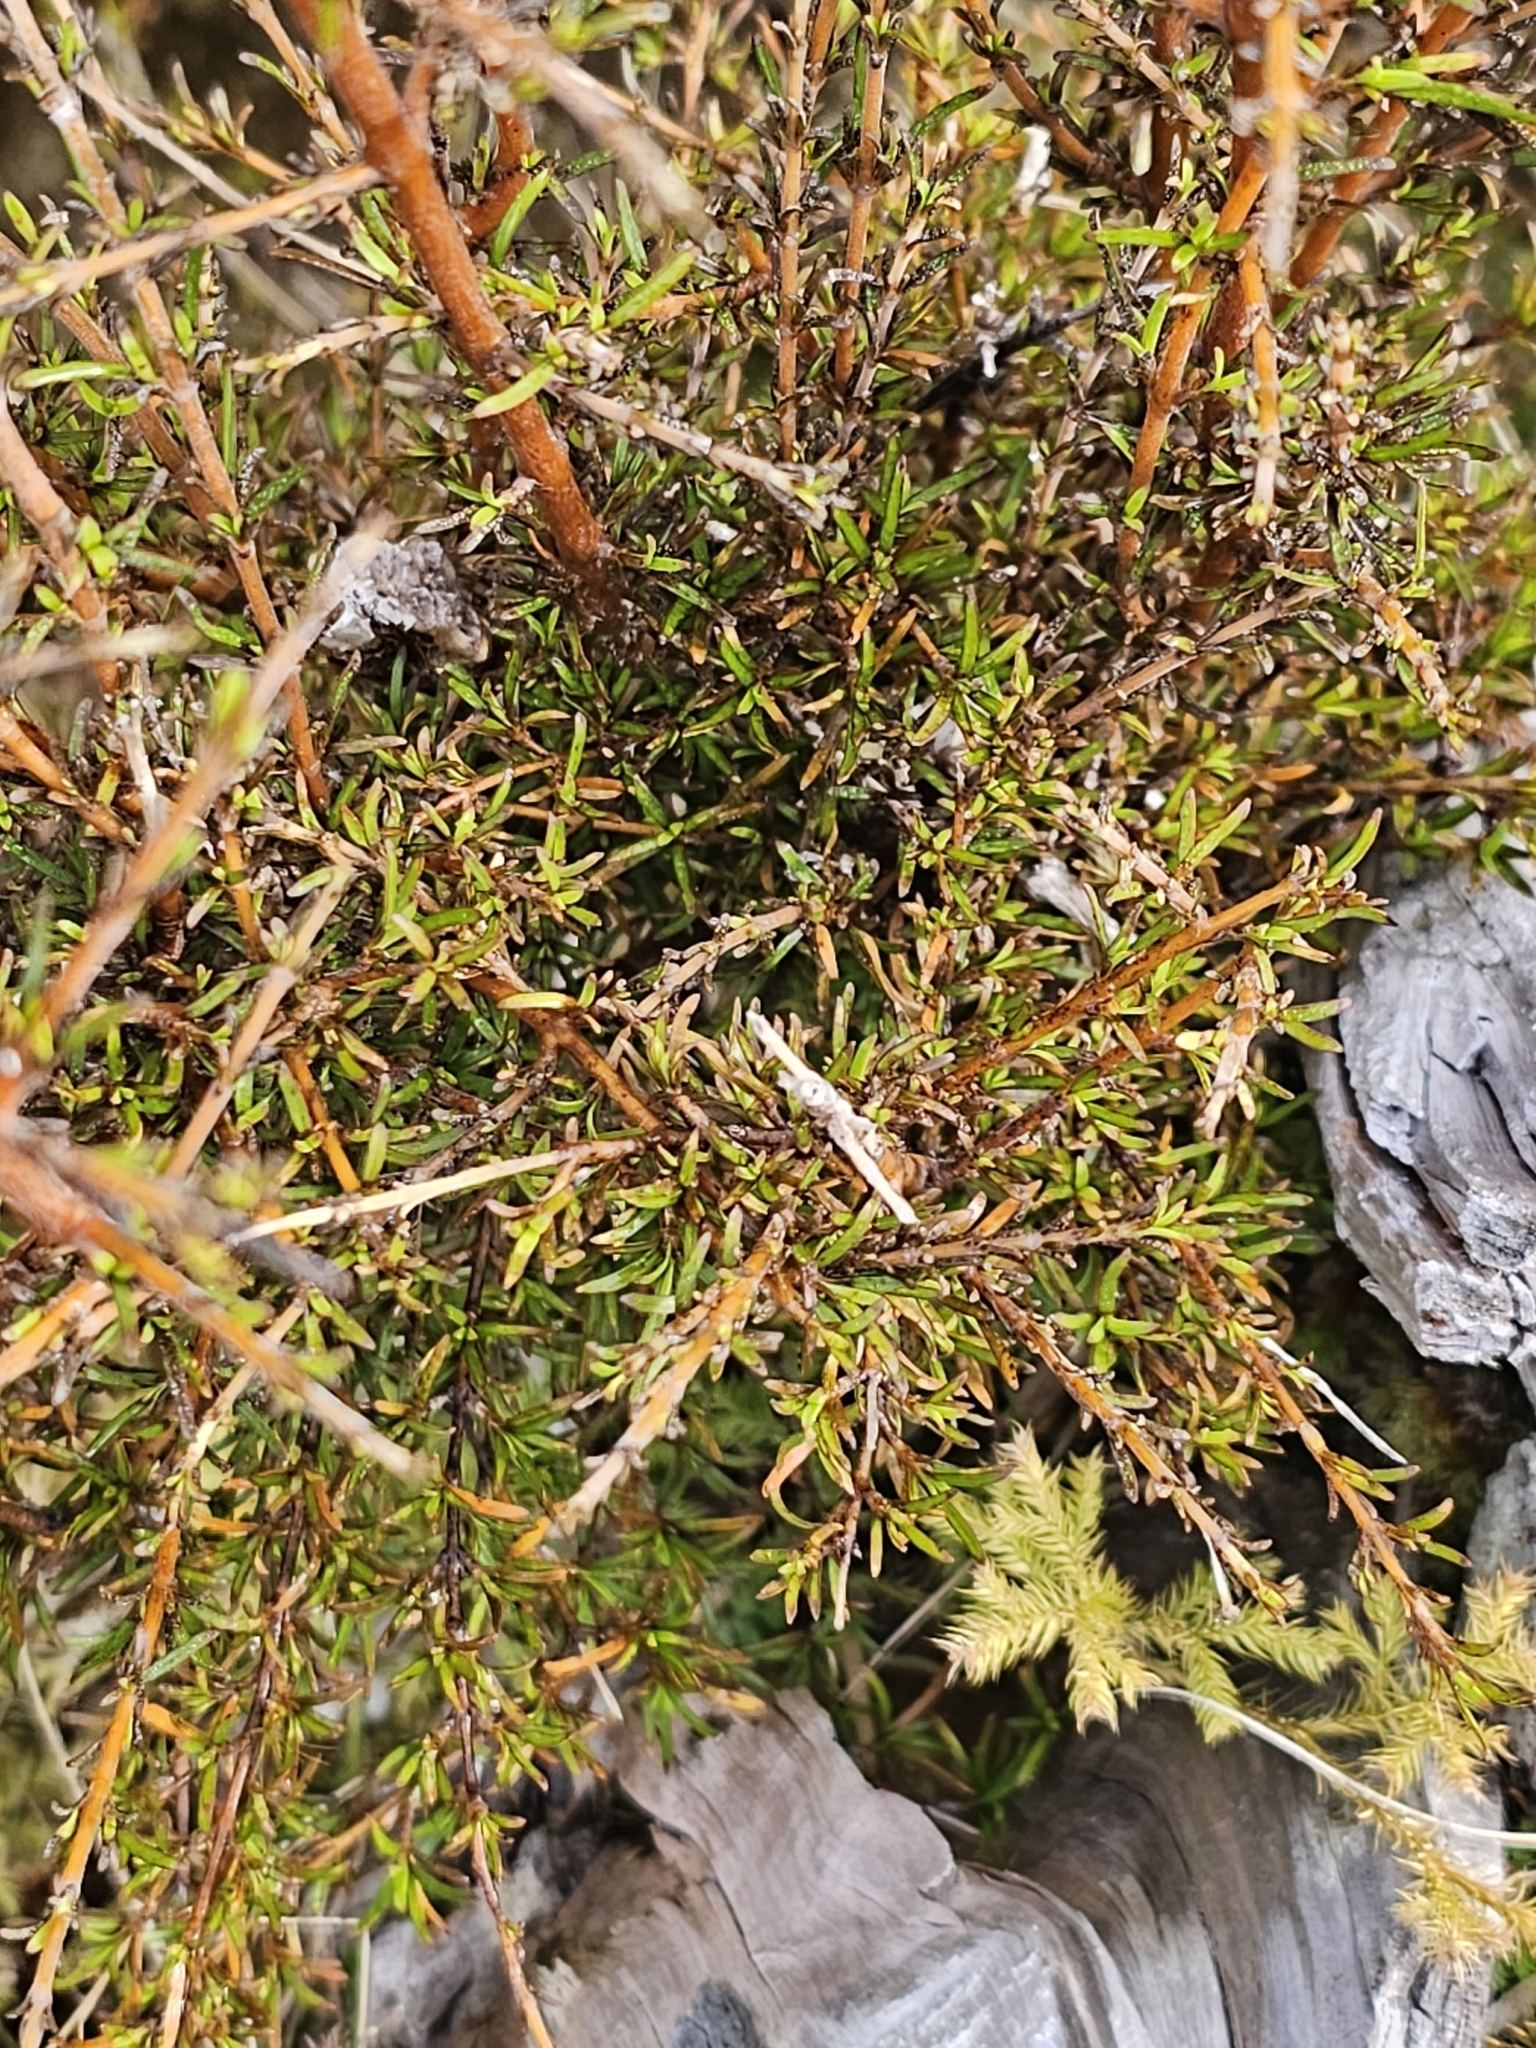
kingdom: Plantae
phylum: Tracheophyta
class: Magnoliopsida
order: Gentianales
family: Rubiaceae
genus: Coprosma
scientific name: Coprosma rugosa
